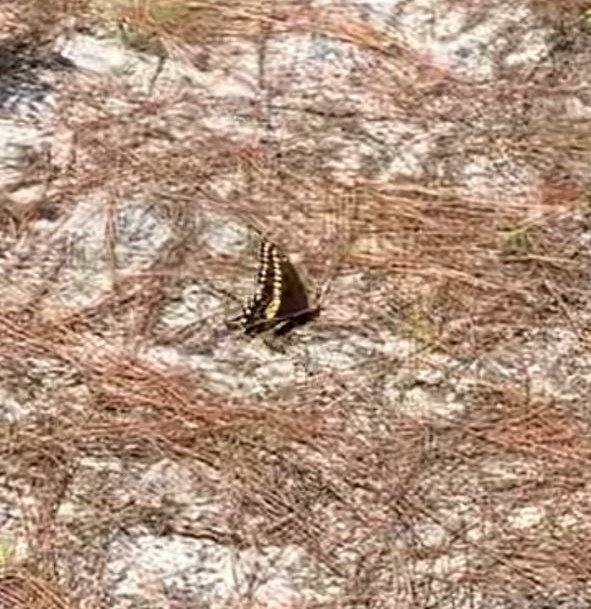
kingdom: Animalia
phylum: Arthropoda
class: Insecta
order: Lepidoptera
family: Papilionidae
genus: Papilio
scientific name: Papilio polyxenes
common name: Black swallowtail
